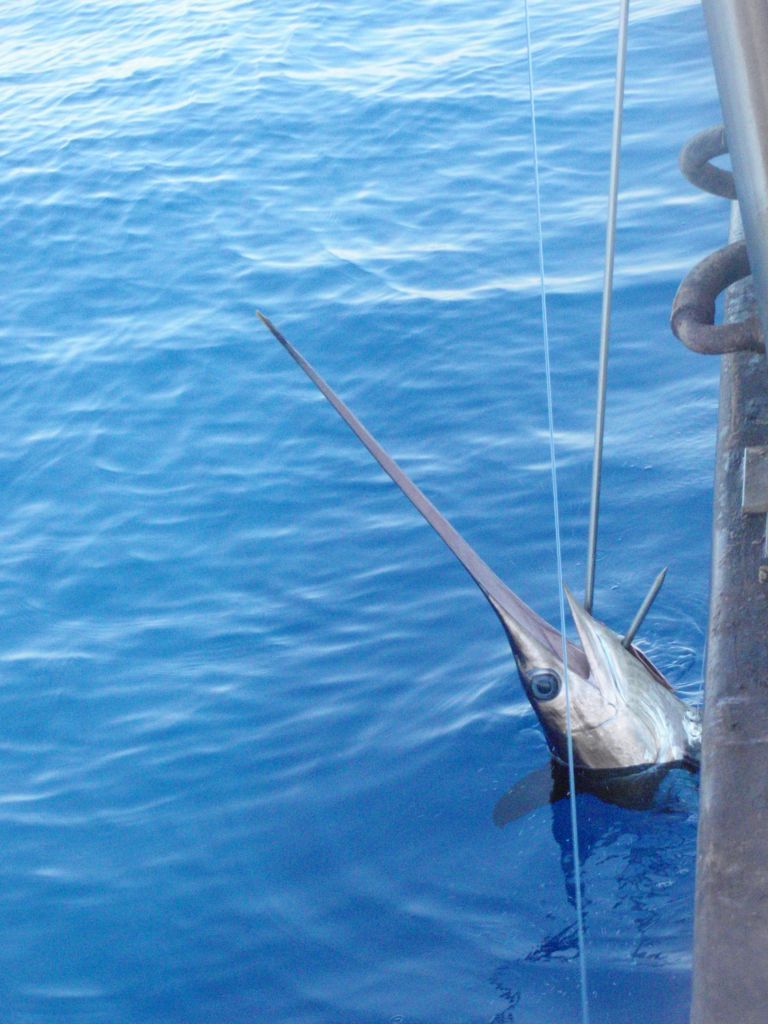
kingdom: Animalia
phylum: Chordata
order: Perciformes
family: Xiphiidae
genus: Xiphias
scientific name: Xiphias gladius
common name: Swordfish
